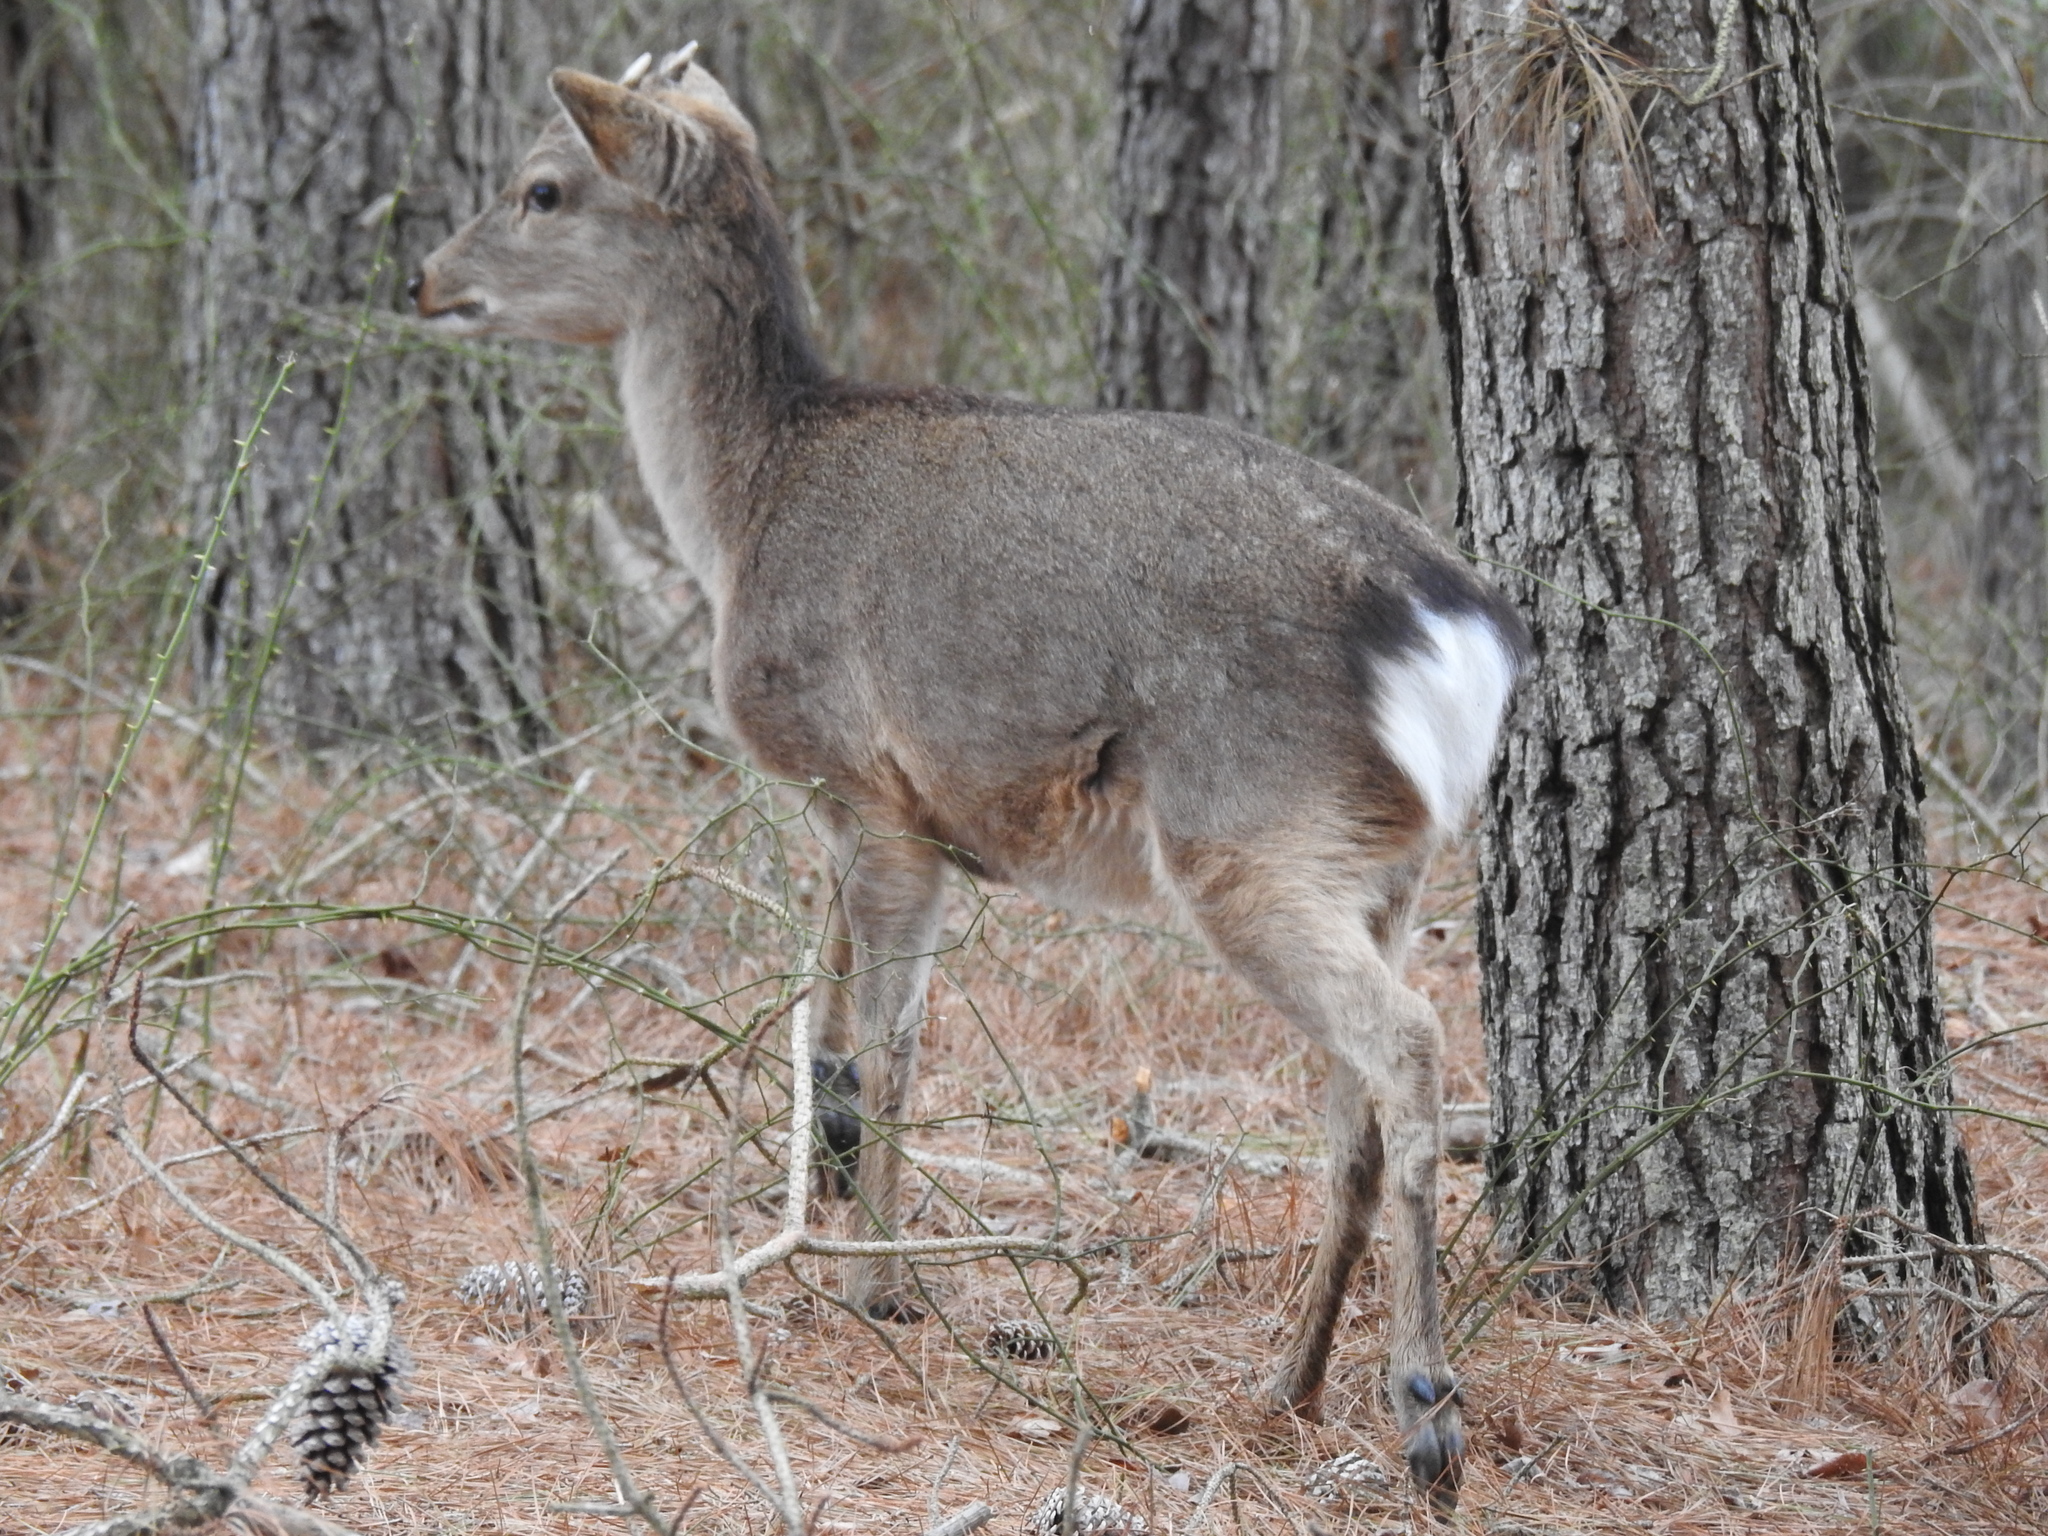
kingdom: Animalia
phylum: Chordata
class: Mammalia
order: Artiodactyla
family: Cervidae
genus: Cervus
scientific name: Cervus nippon
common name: Sika deer
